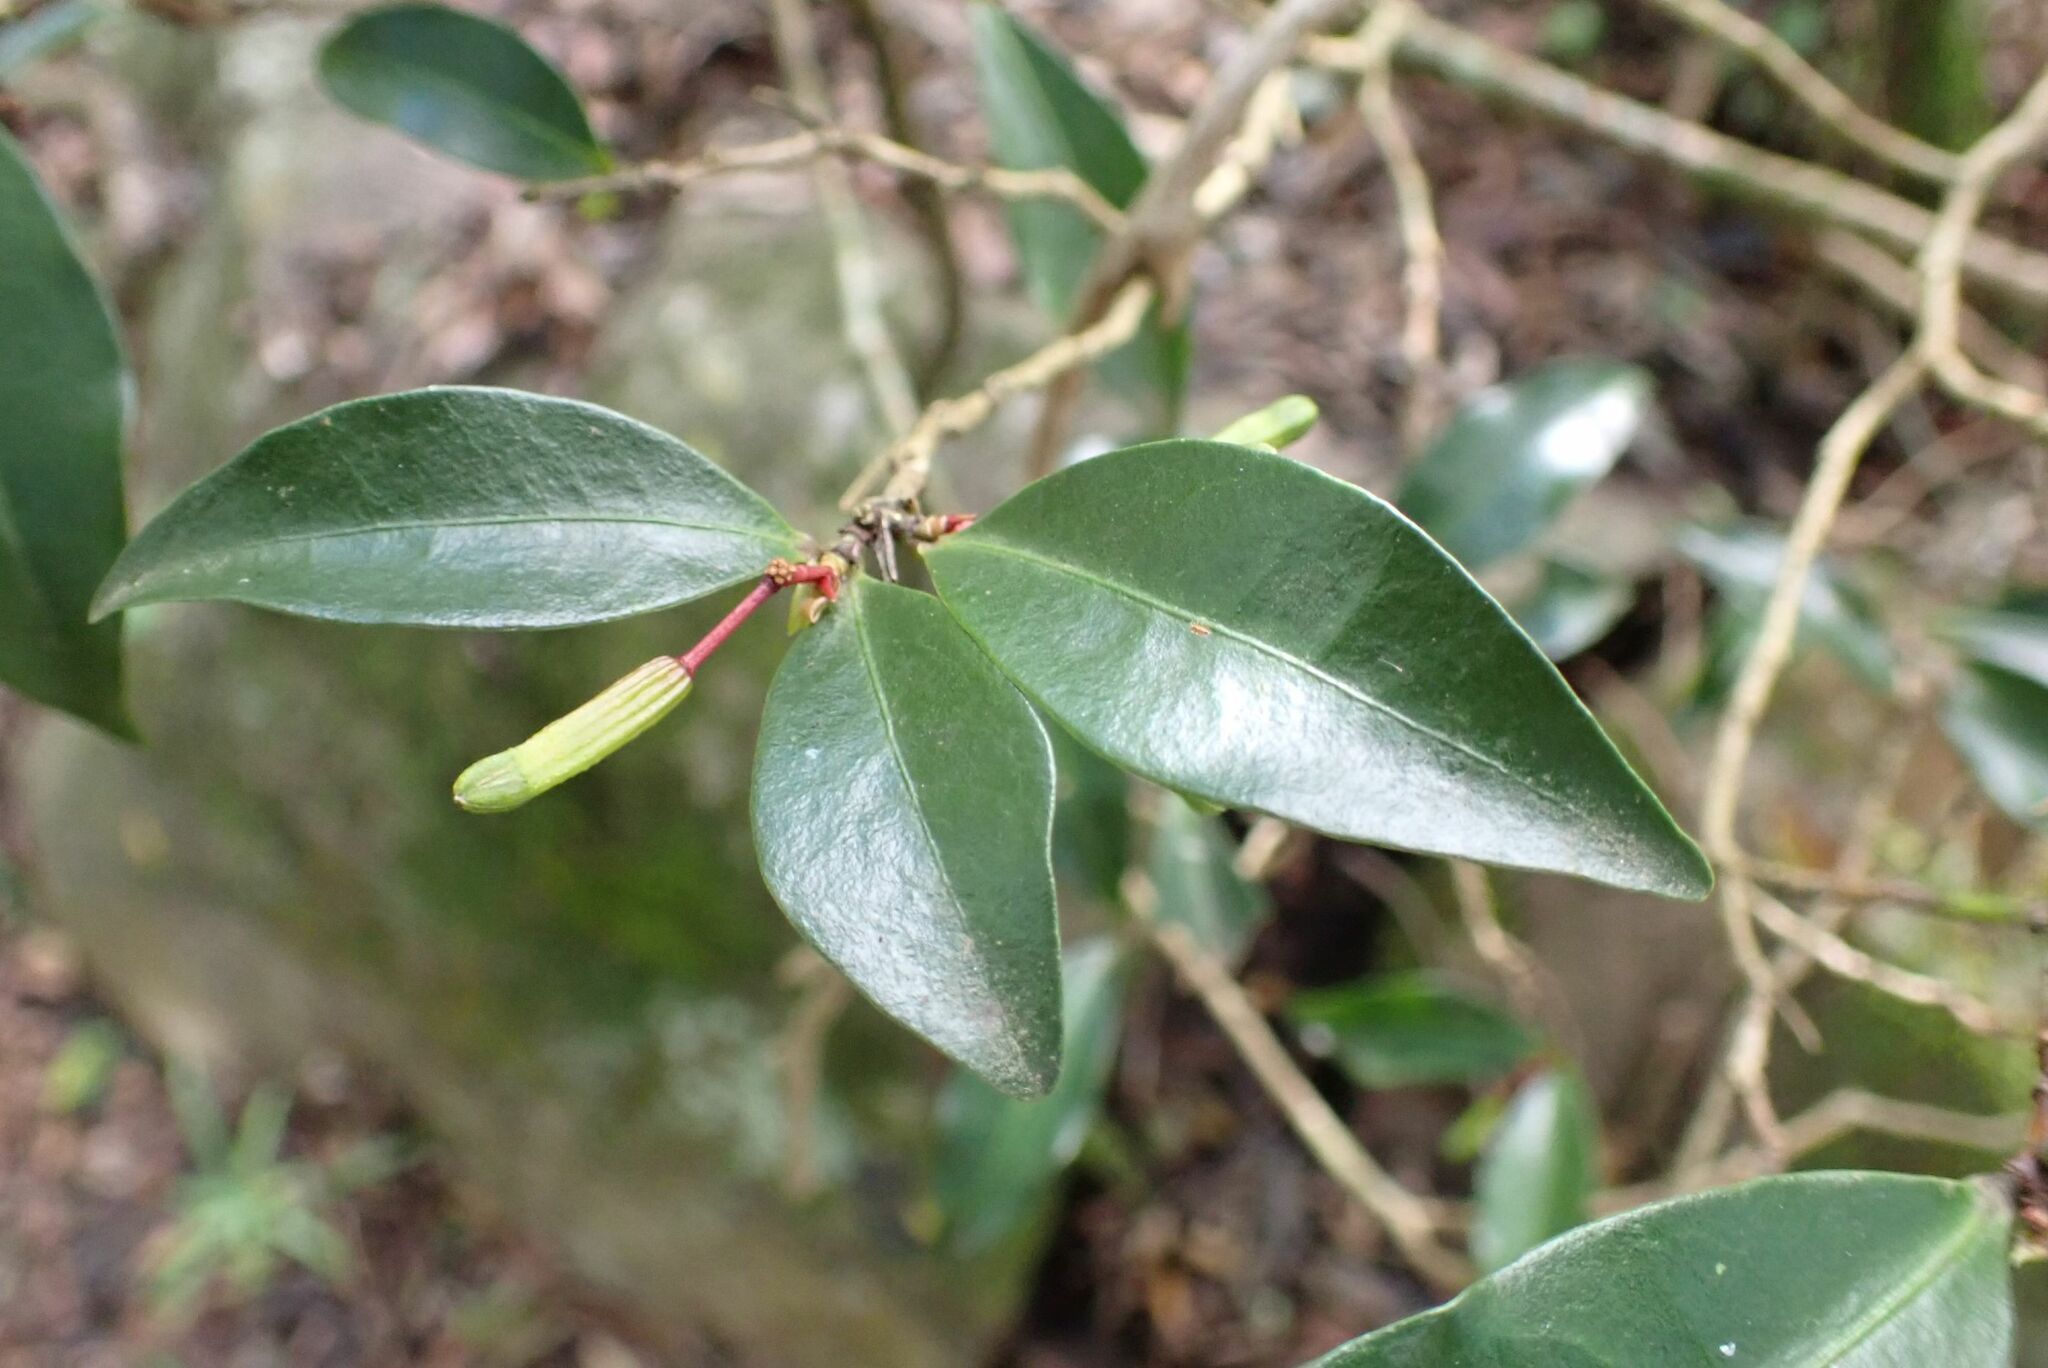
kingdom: Plantae
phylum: Tracheophyta
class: Magnoliopsida
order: Malvales
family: Thymelaeaceae
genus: Peddiea
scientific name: Peddiea africana
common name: Poison olive
